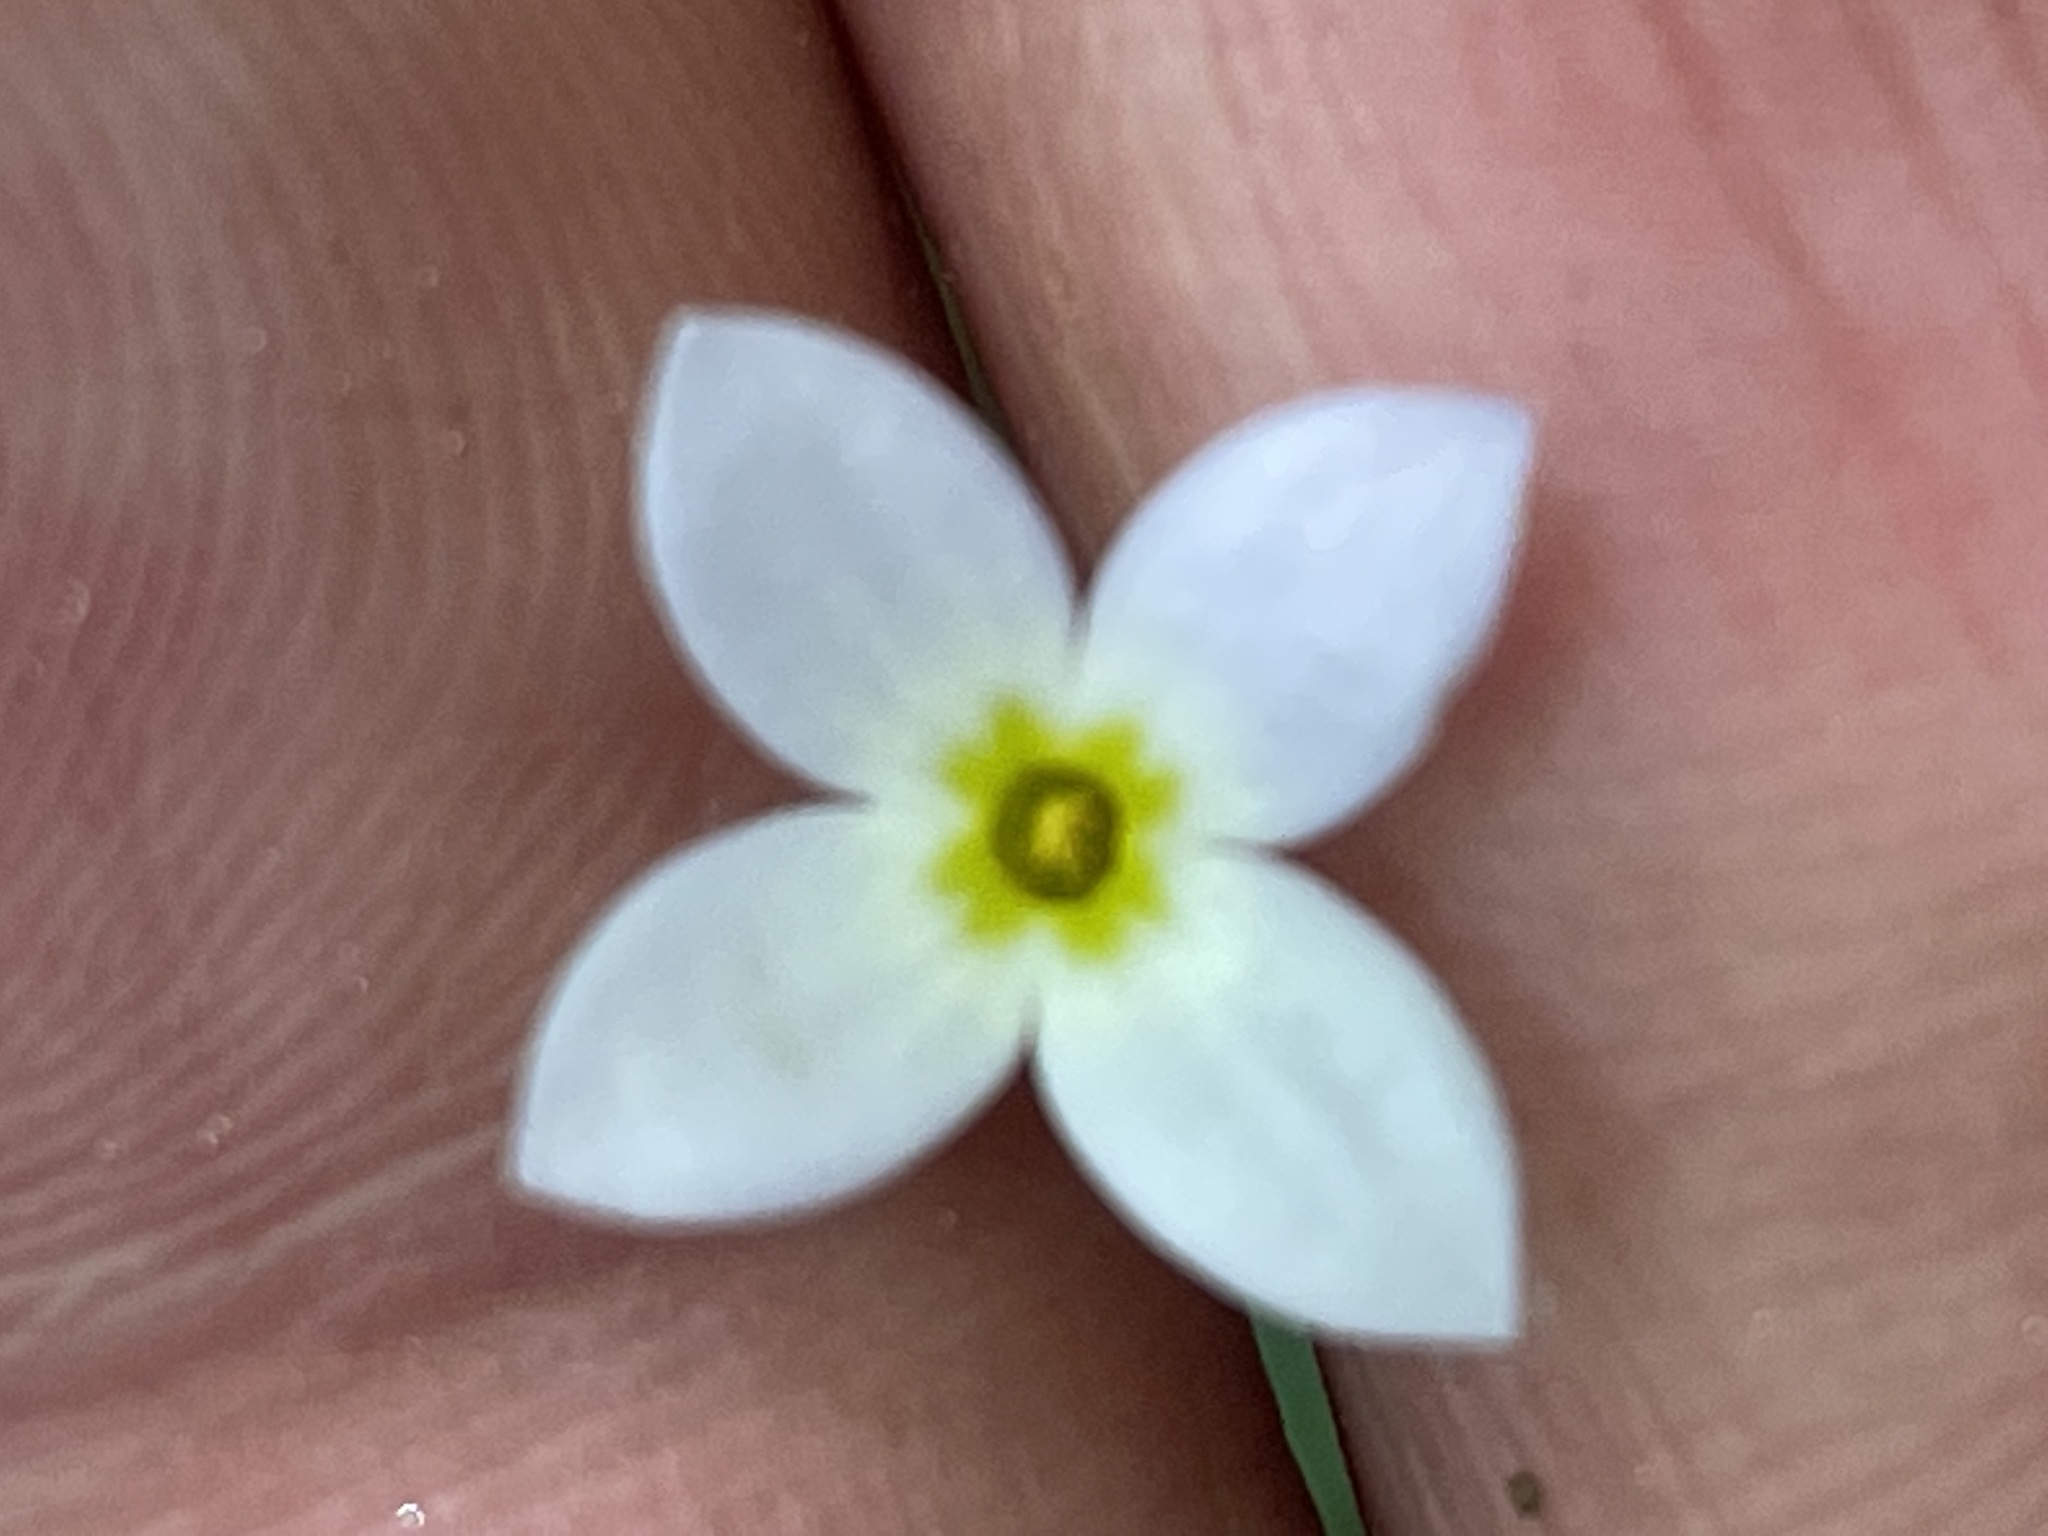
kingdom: Plantae
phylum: Tracheophyta
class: Magnoliopsida
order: Gentianales
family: Rubiaceae
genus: Houstonia
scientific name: Houstonia caerulea
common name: Bluets
